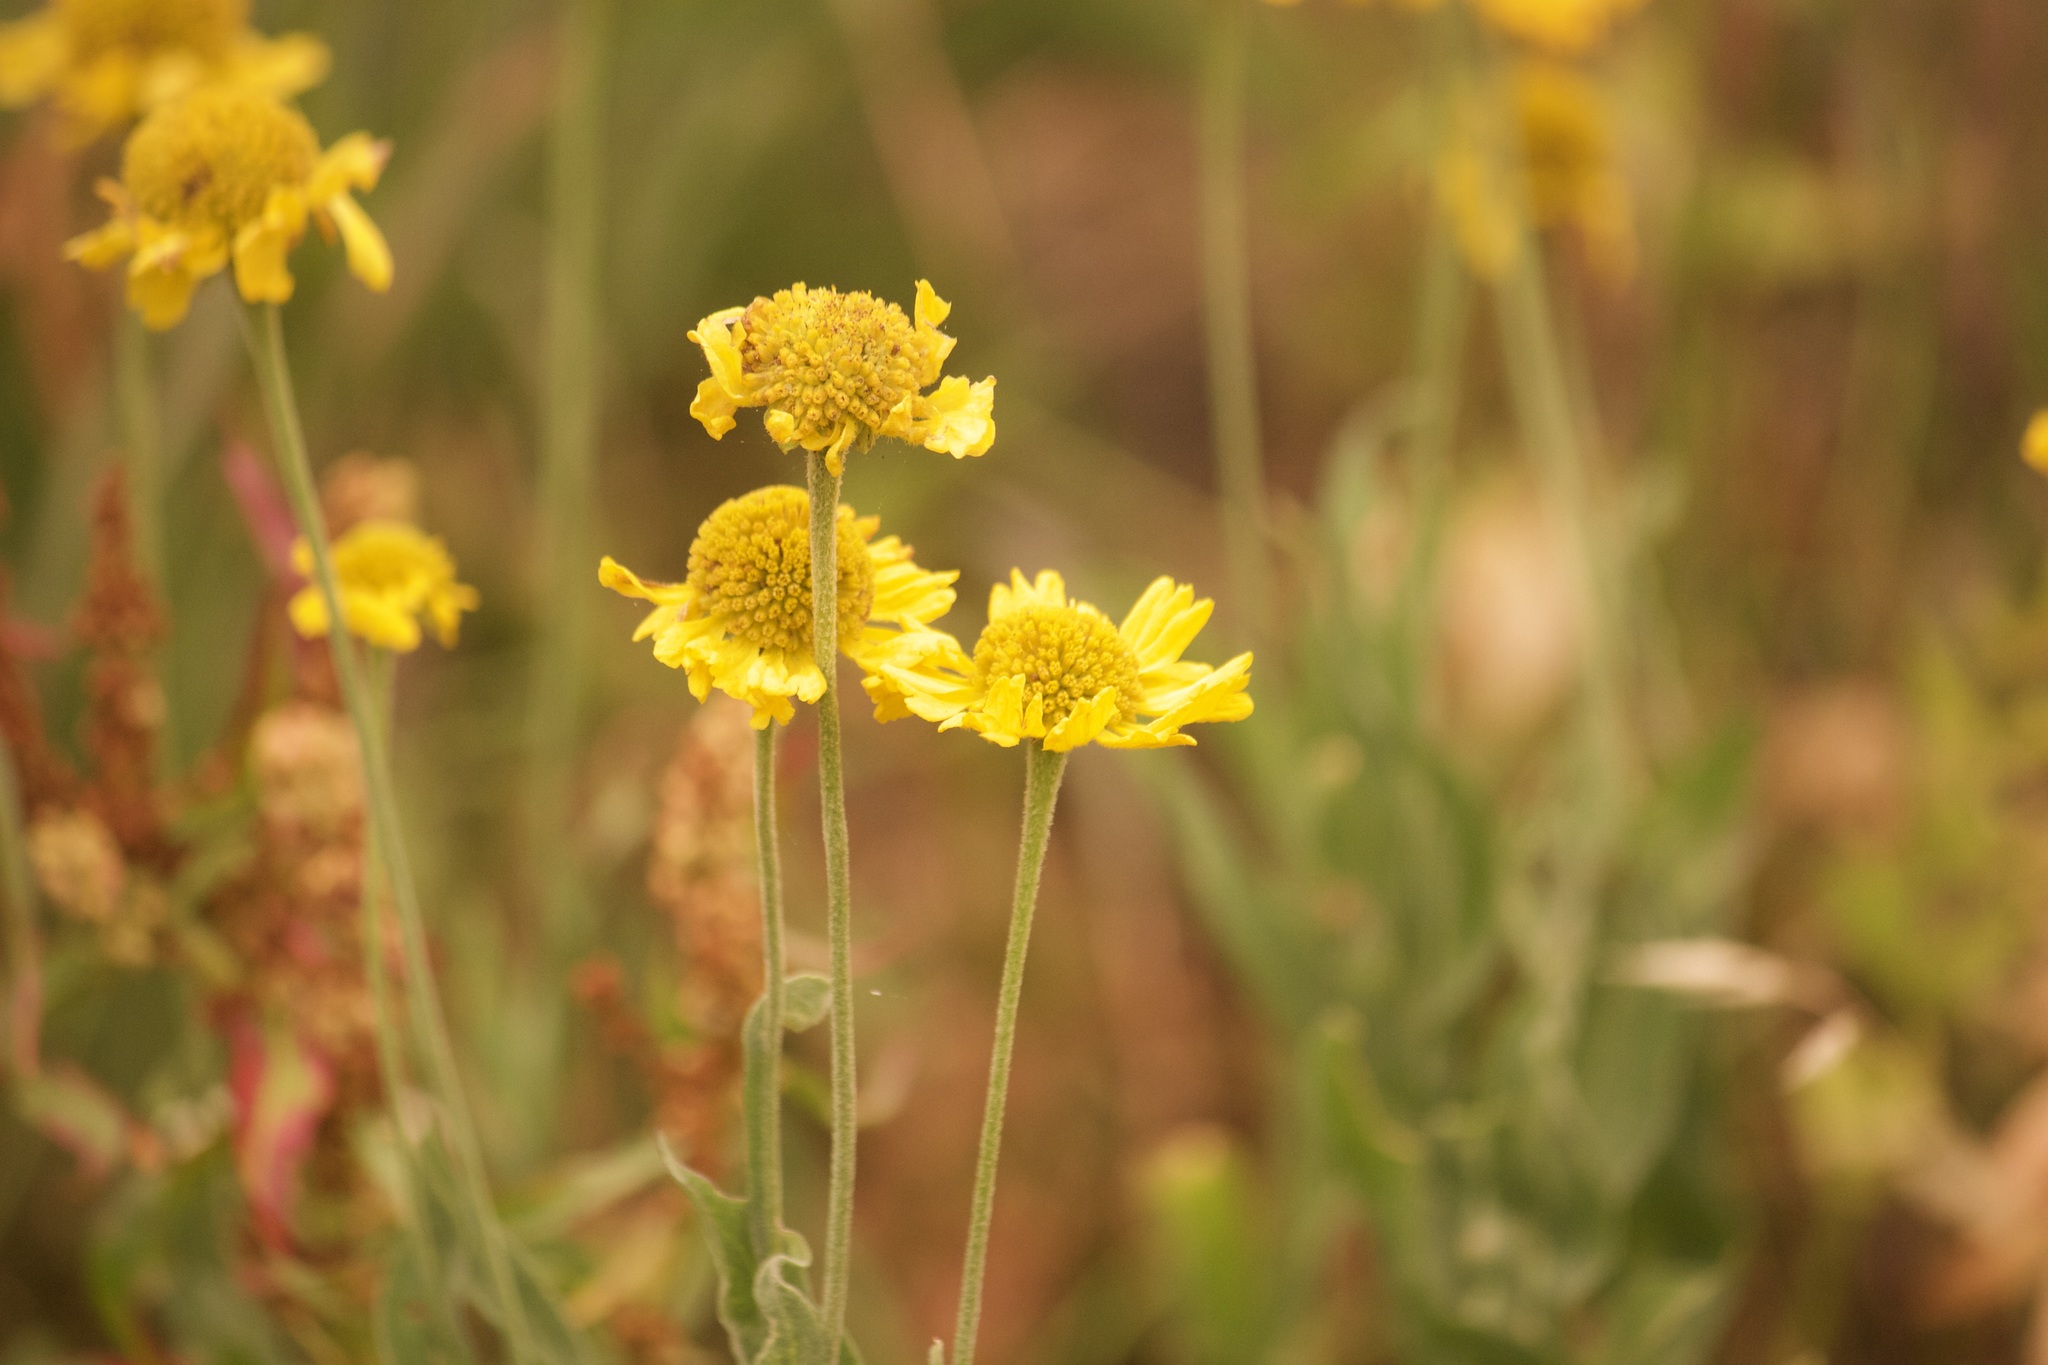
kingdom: Plantae
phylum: Tracheophyta
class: Magnoliopsida
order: Asterales
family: Asteraceae
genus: Helenium
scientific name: Helenium bigelovii
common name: Bigelow's sneezeweed
